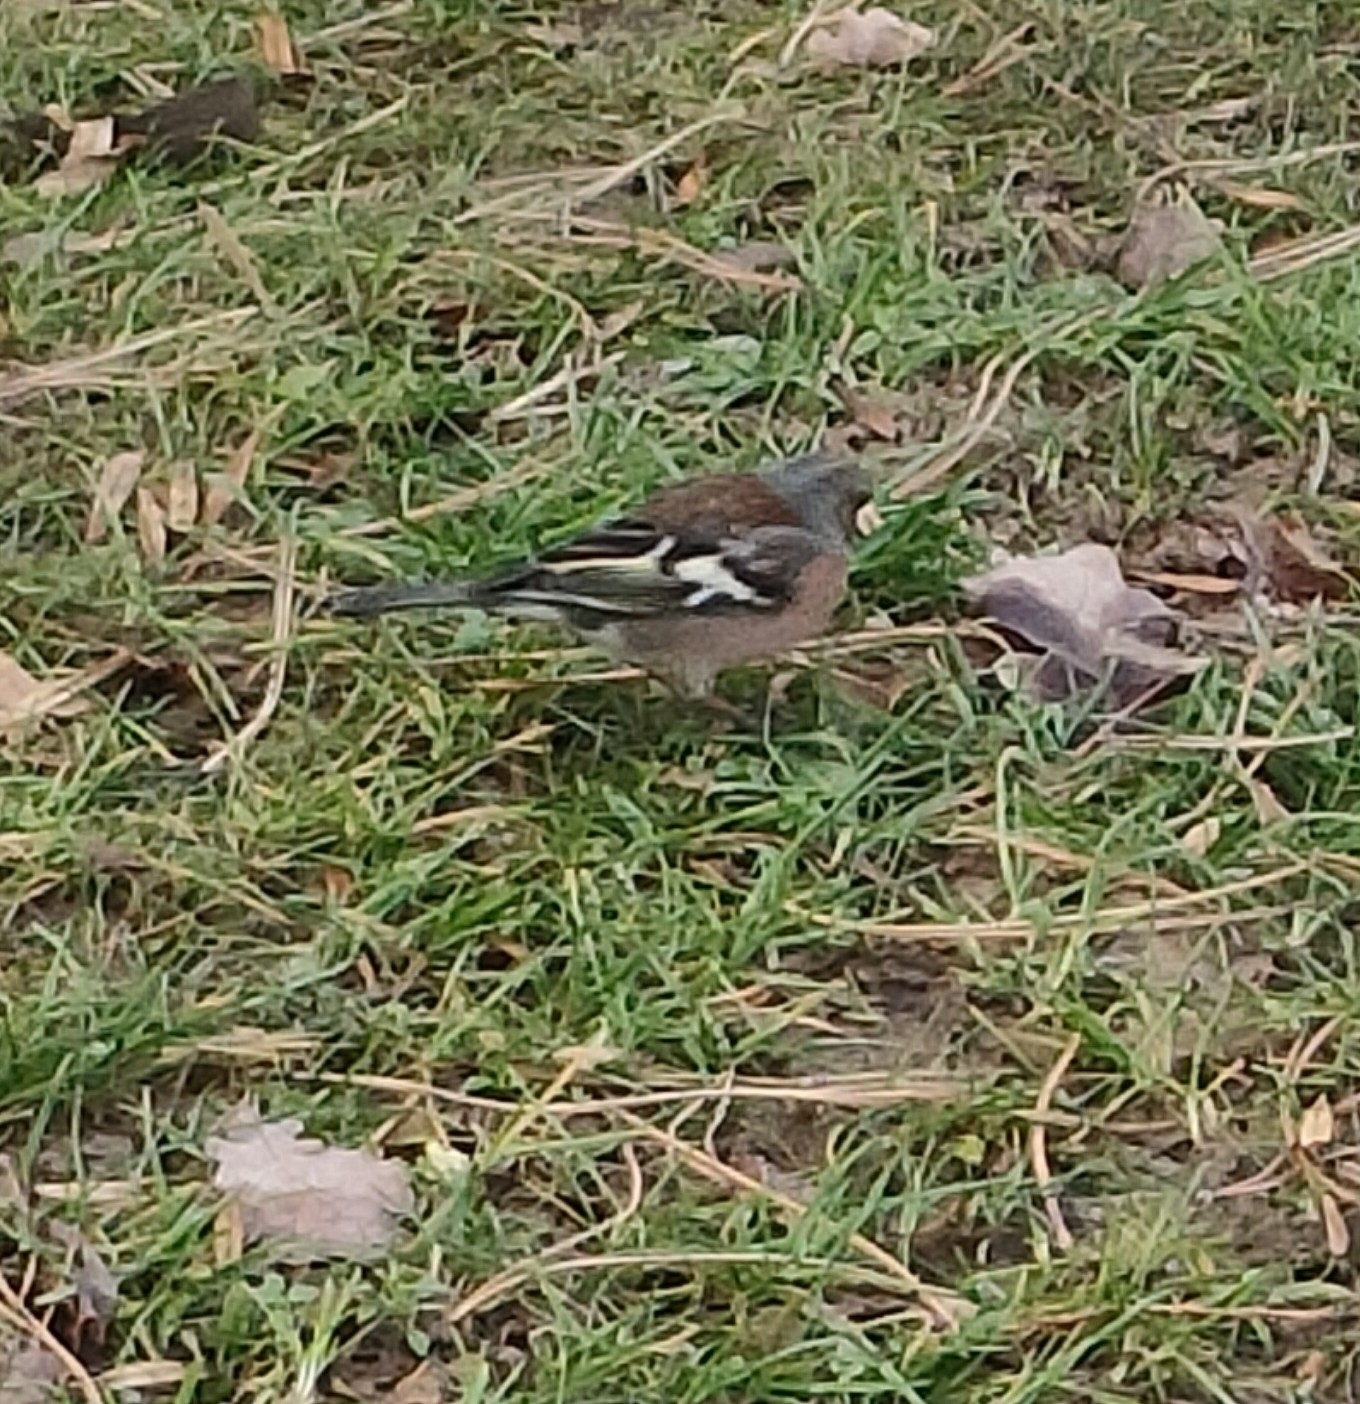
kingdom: Animalia
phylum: Chordata
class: Aves
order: Passeriformes
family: Fringillidae
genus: Fringilla
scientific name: Fringilla coelebs
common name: Common chaffinch
